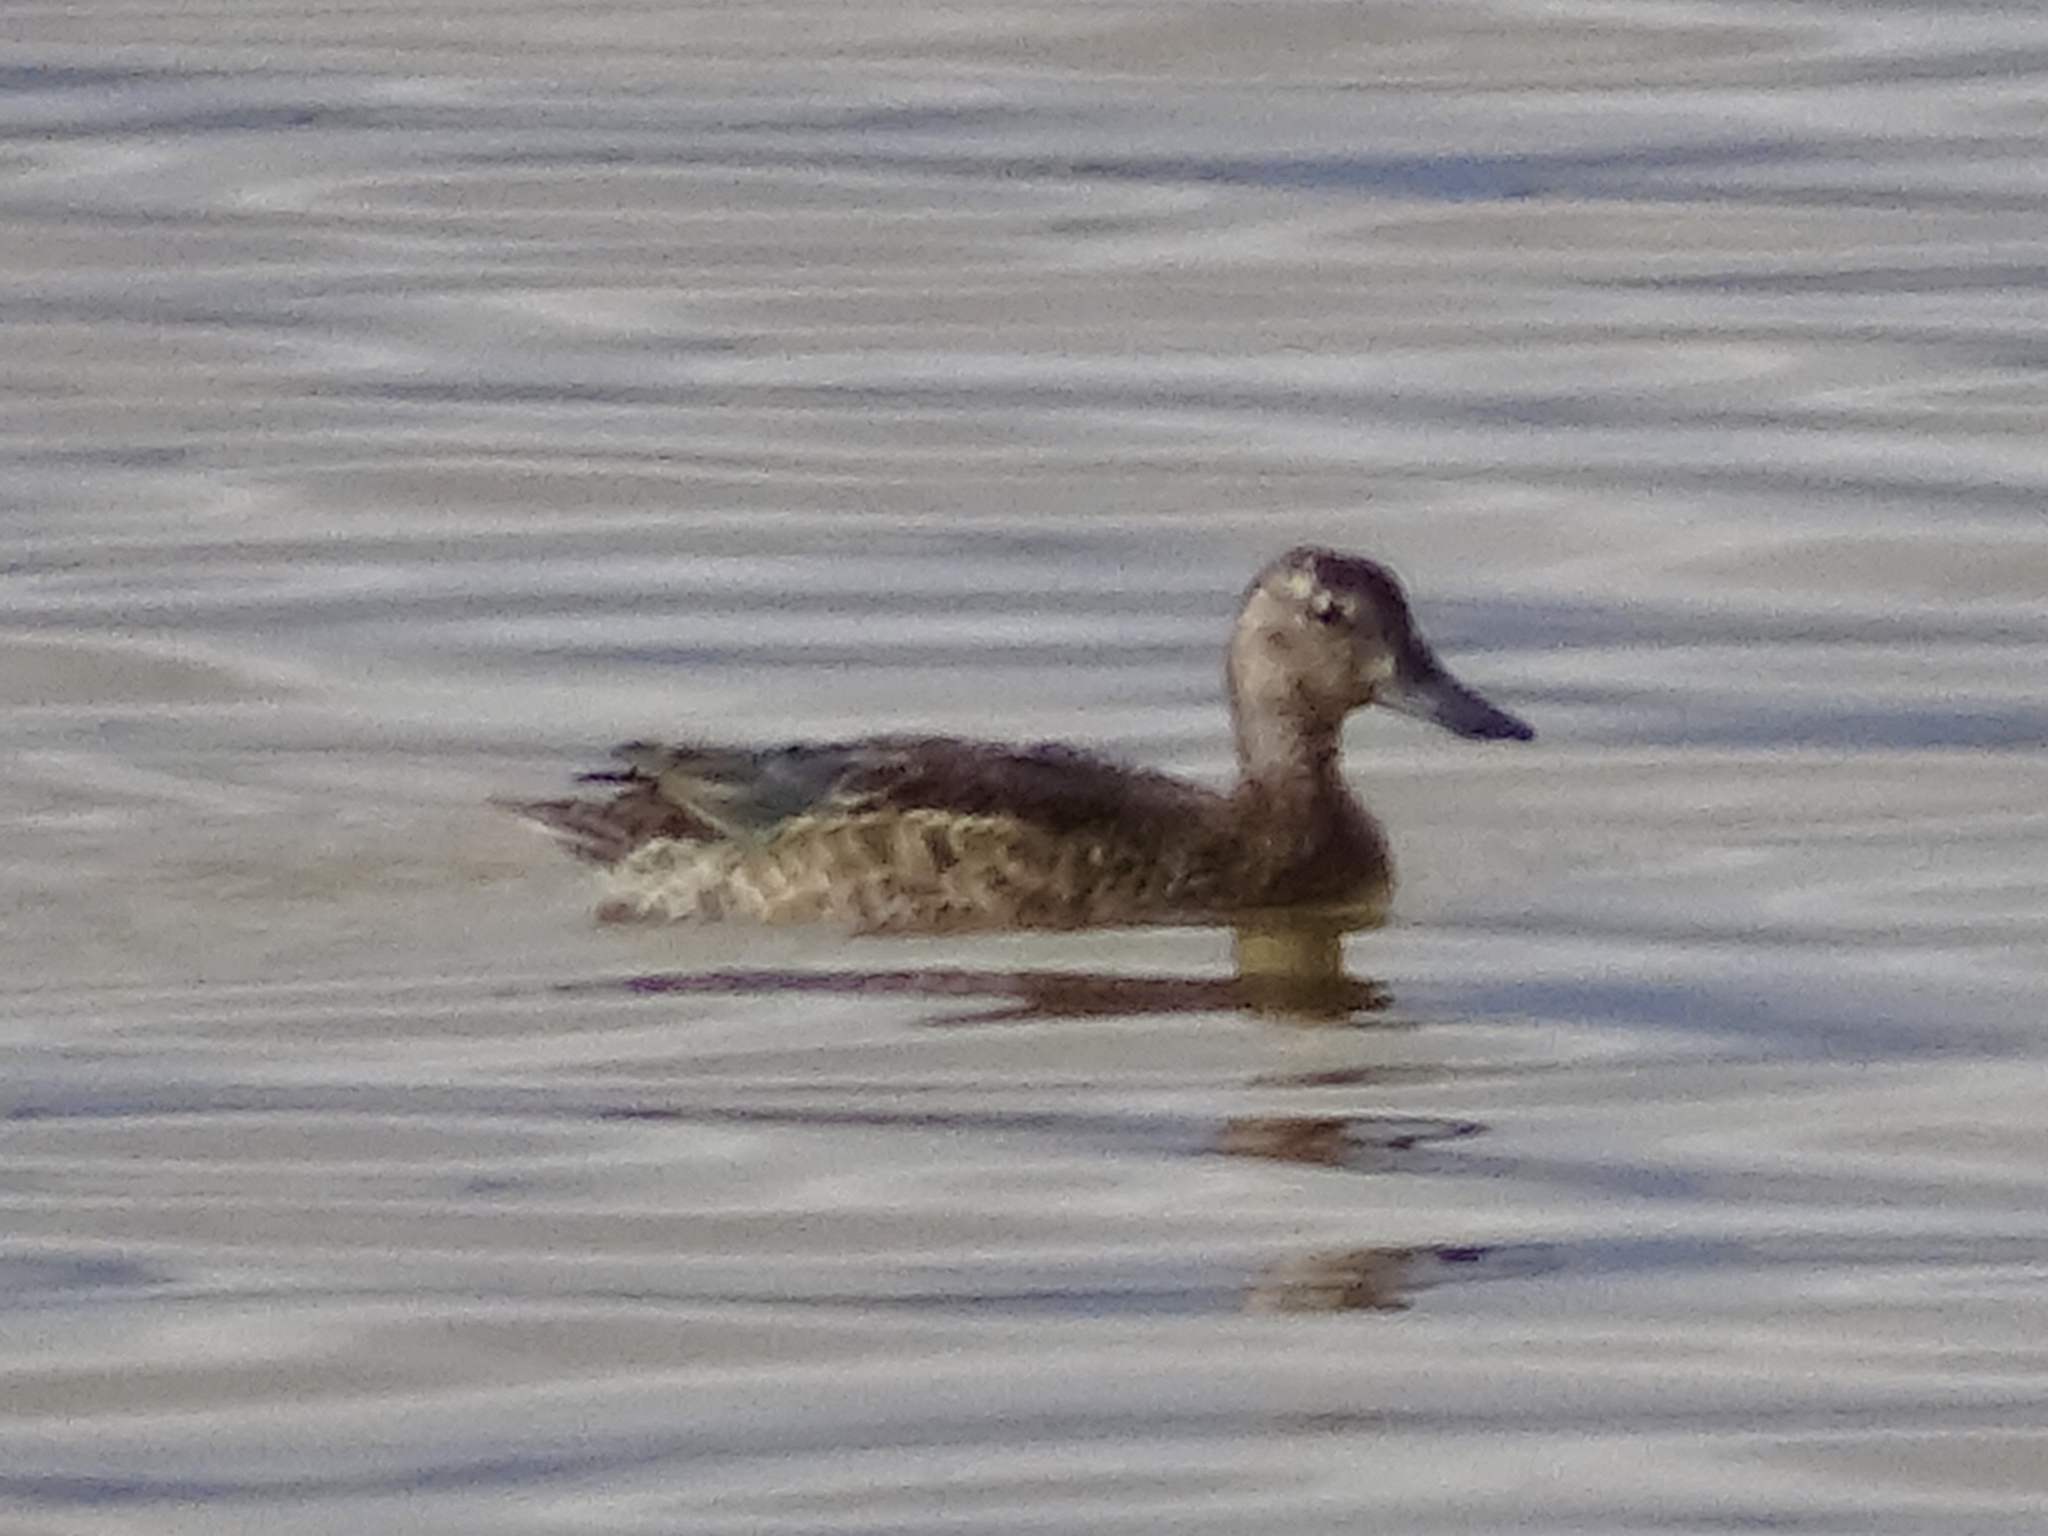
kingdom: Animalia
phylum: Chordata
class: Aves
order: Anseriformes
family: Anatidae
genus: Spatula
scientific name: Spatula discors
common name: Blue-winged teal
